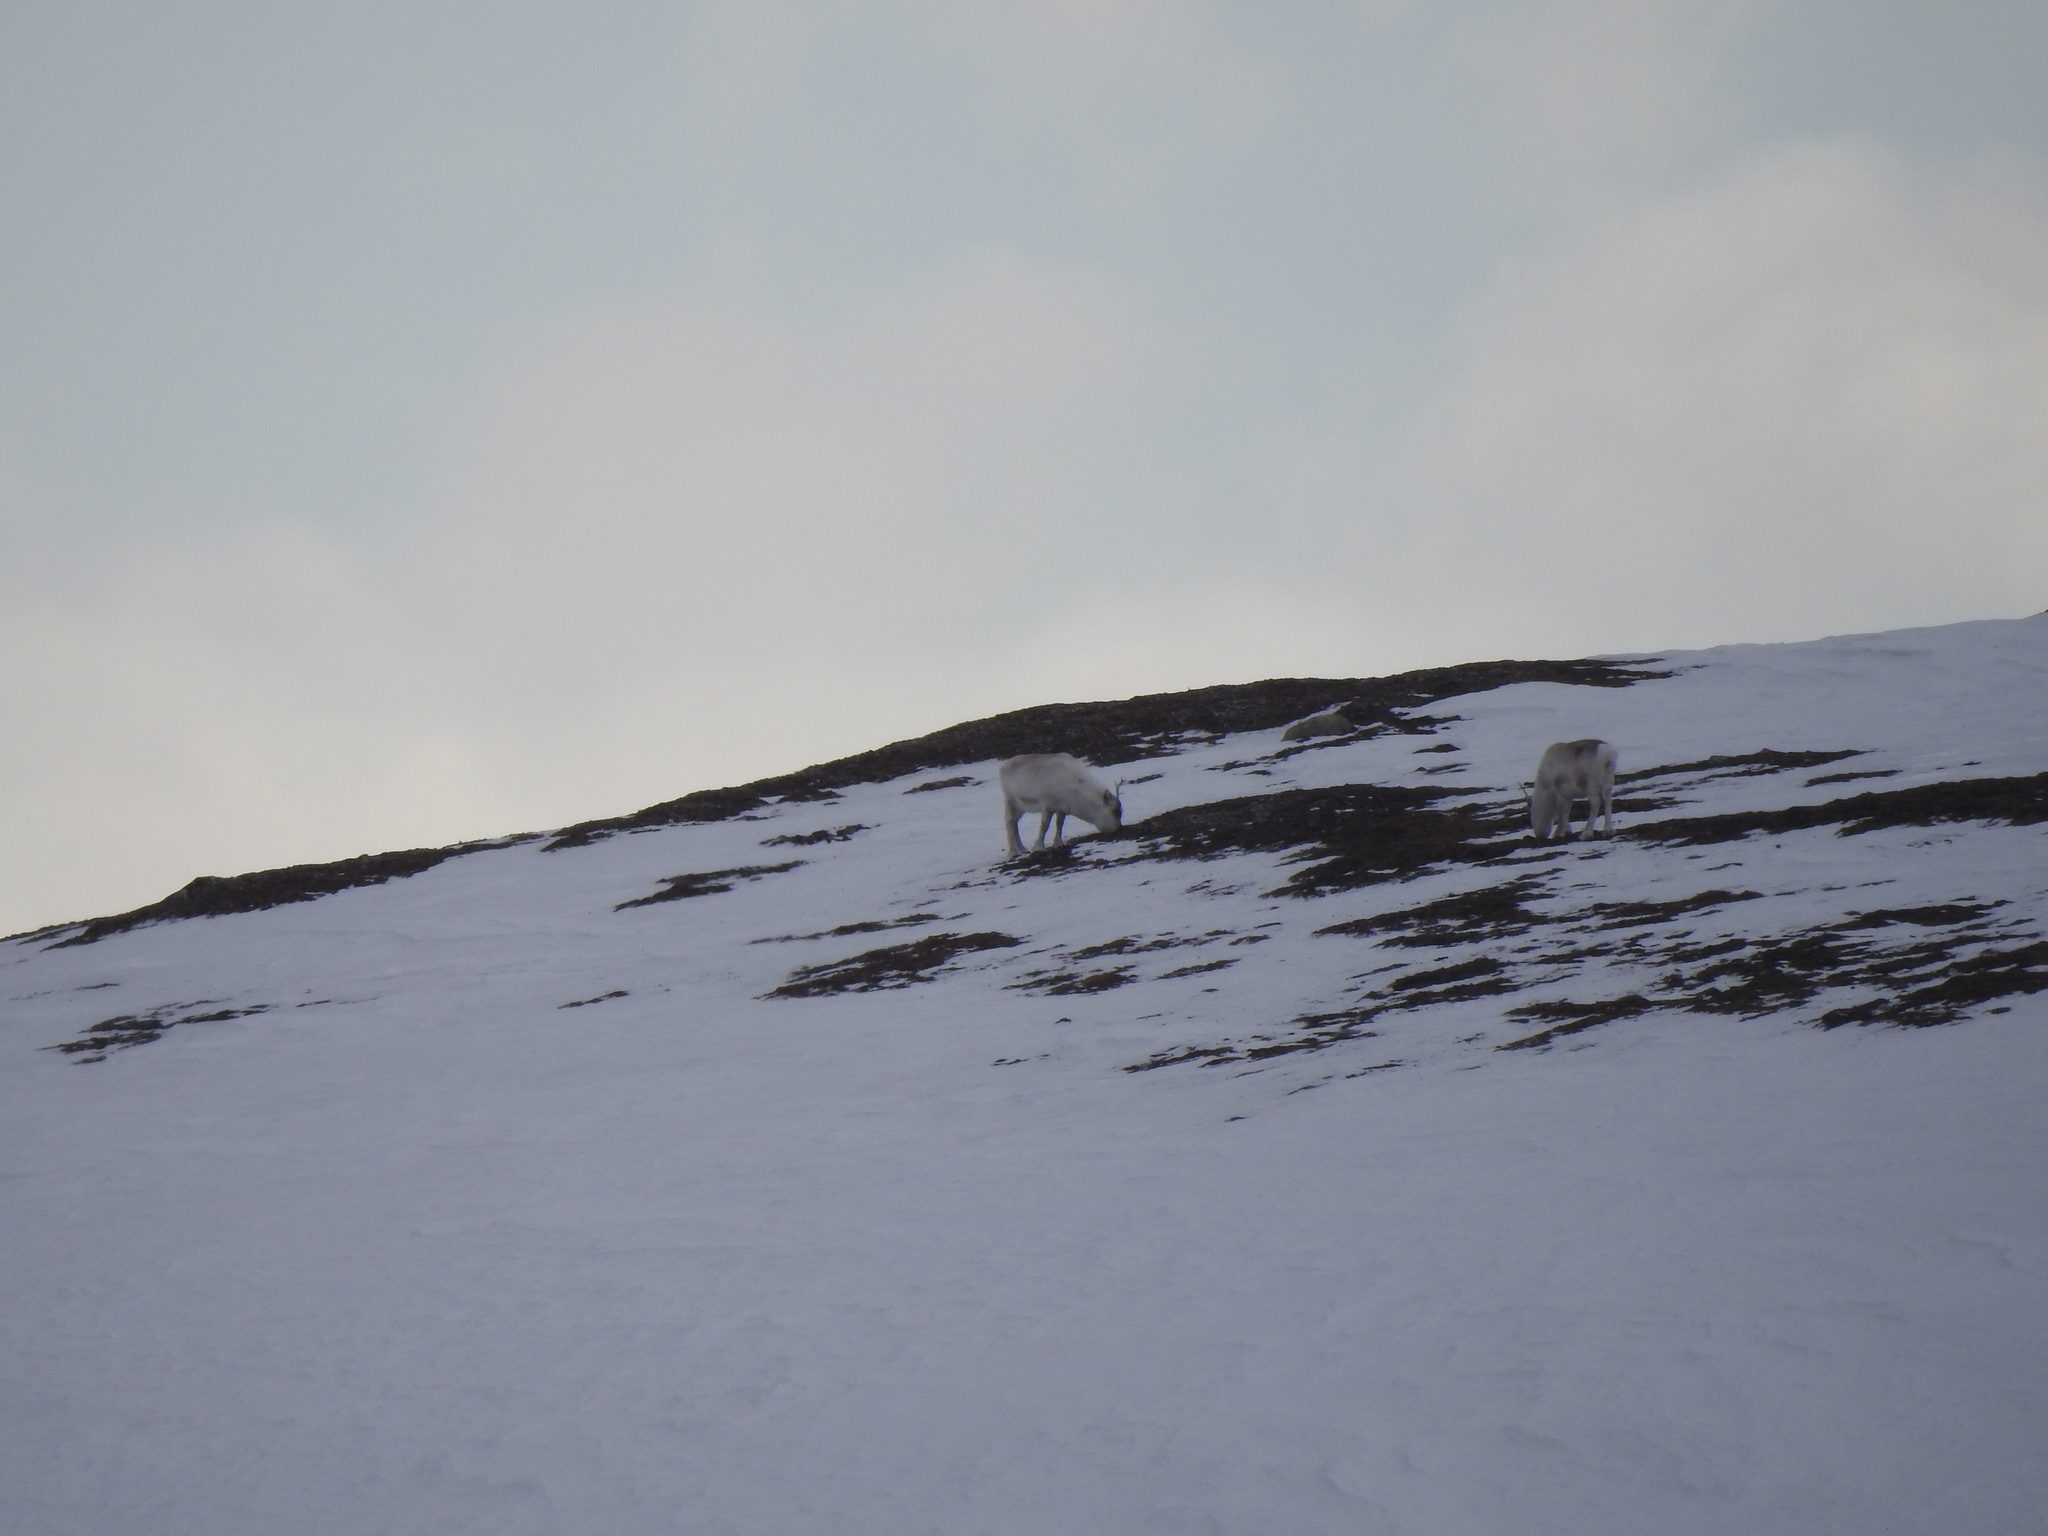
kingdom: Animalia
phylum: Chordata
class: Mammalia
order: Artiodactyla
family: Cervidae
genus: Rangifer
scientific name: Rangifer tarandus
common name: Reindeer
